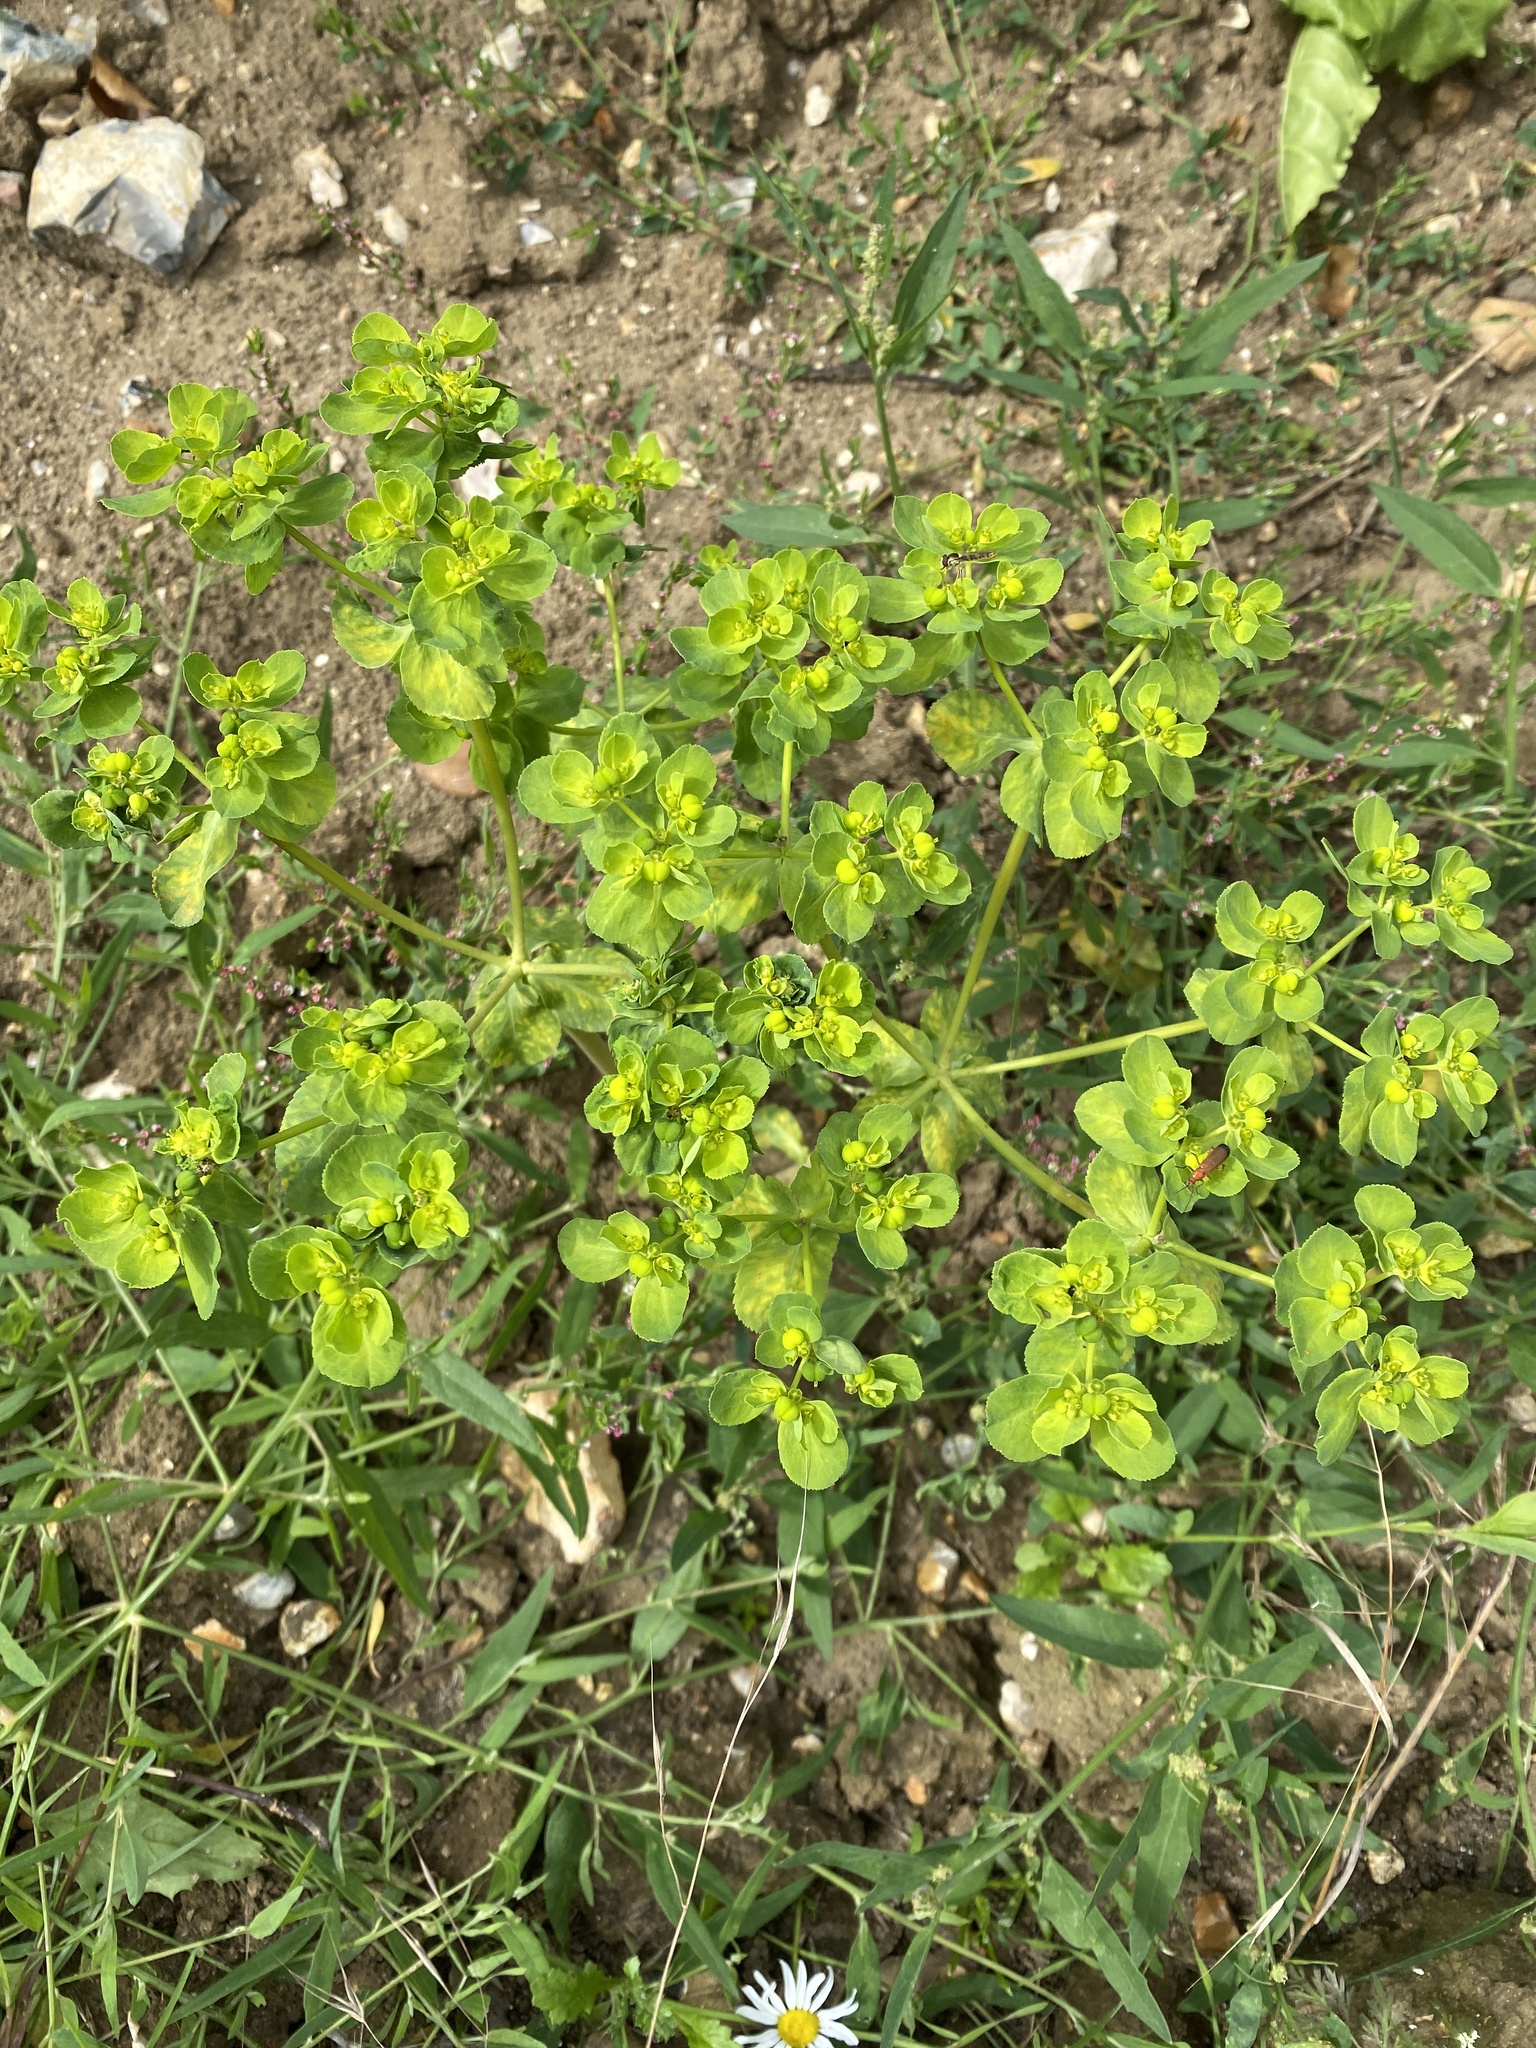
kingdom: Plantae
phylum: Tracheophyta
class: Magnoliopsida
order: Malpighiales
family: Euphorbiaceae
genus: Euphorbia
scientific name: Euphorbia helioscopia
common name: Sun spurge
